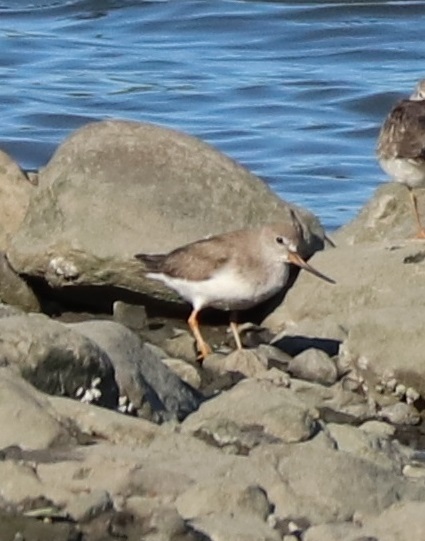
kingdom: Animalia
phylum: Chordata
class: Aves
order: Charadriiformes
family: Scolopacidae
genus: Xenus
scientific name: Xenus cinereus
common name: Terek sandpiper
